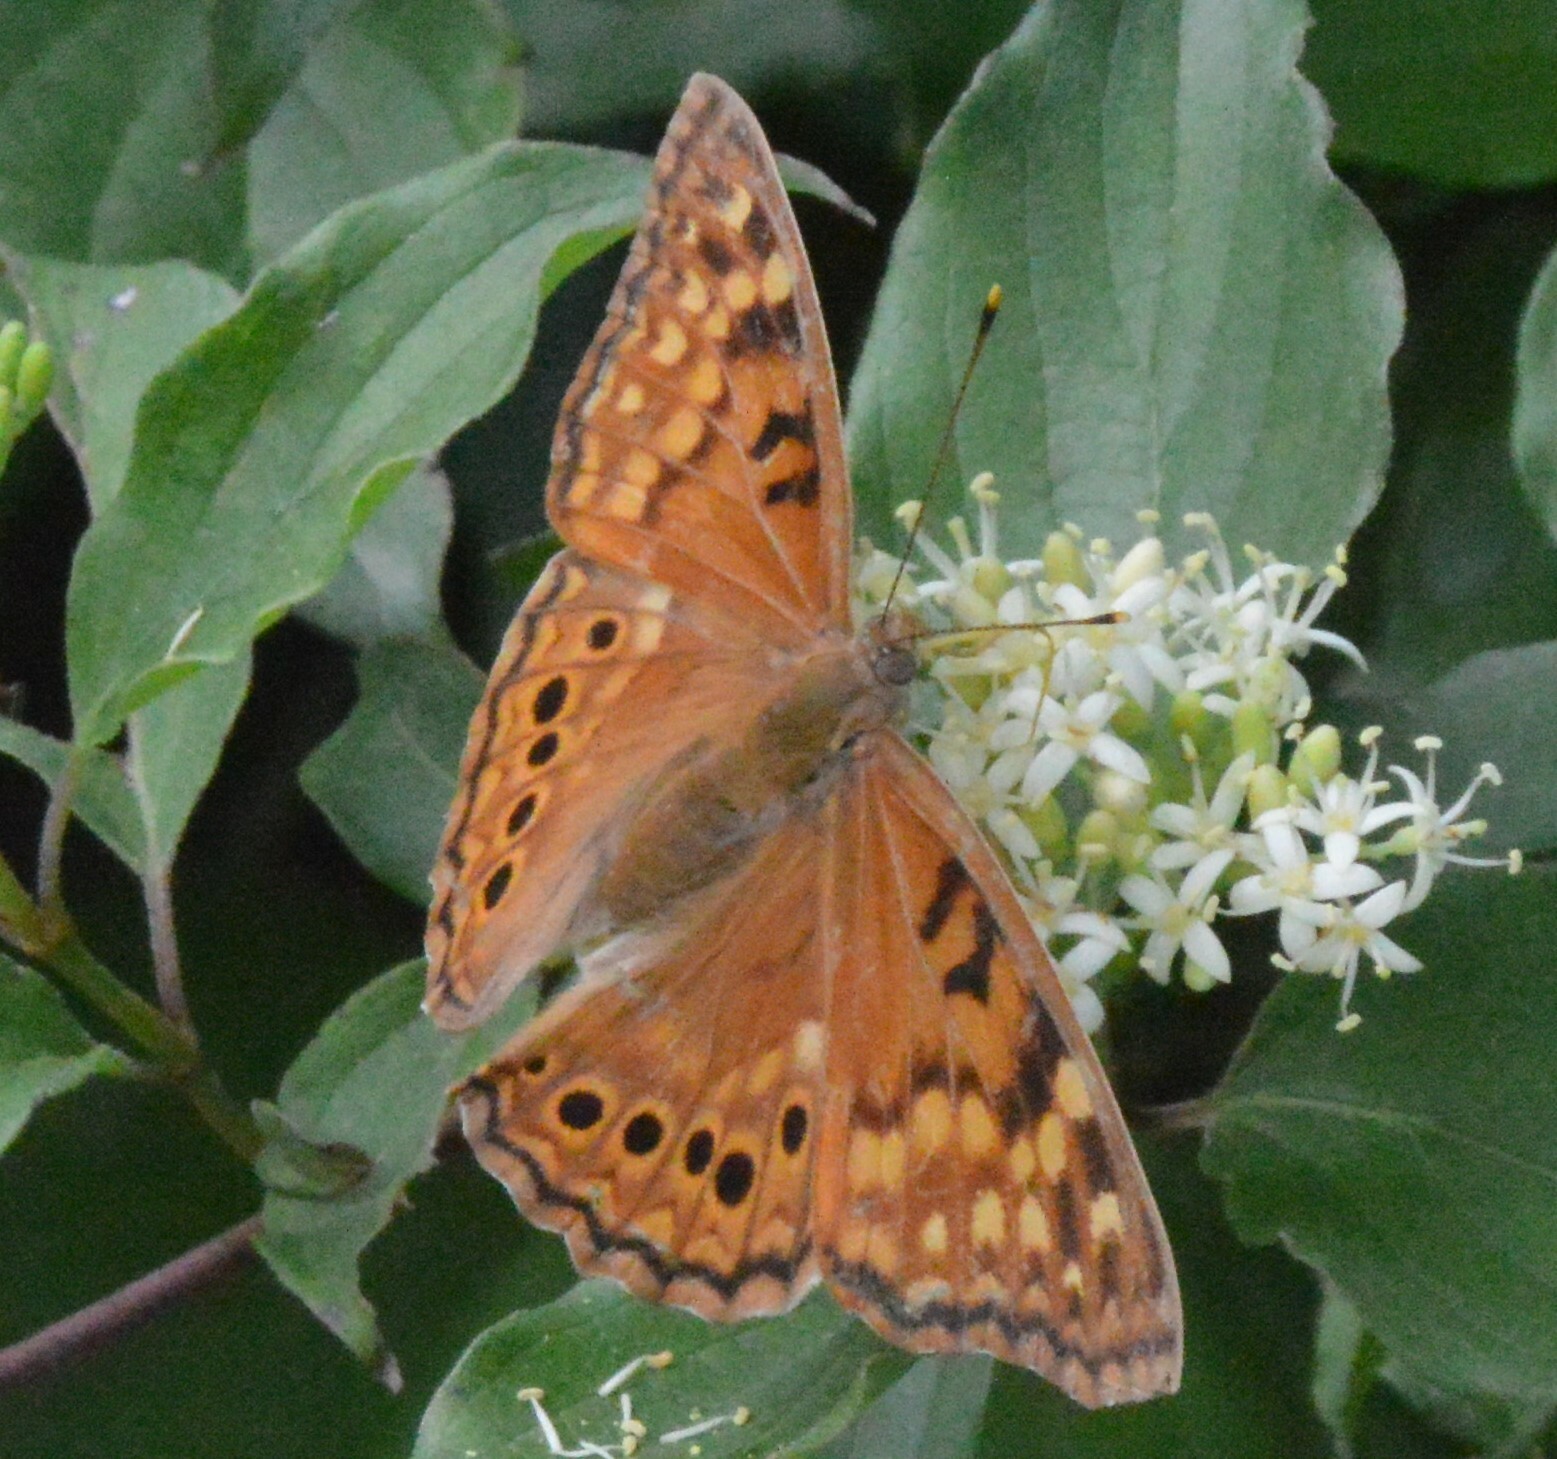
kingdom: Animalia
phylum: Arthropoda
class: Insecta
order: Lepidoptera
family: Nymphalidae
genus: Asterocampa
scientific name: Asterocampa clyton
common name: Tawny emperor
